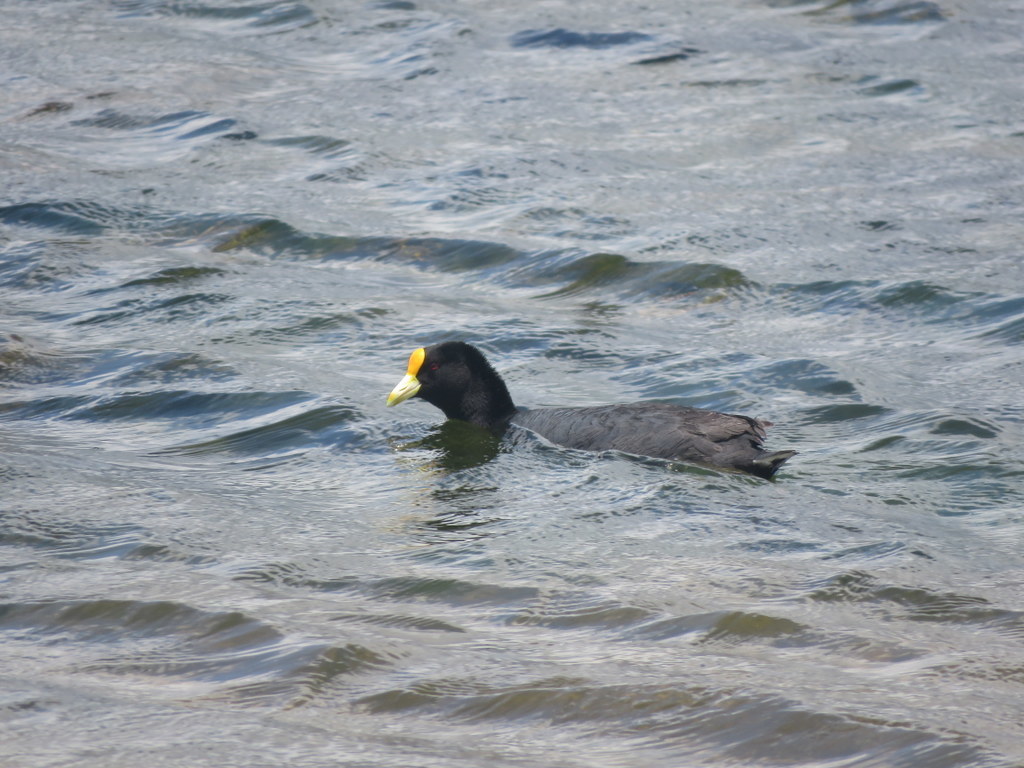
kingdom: Animalia
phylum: Chordata
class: Aves
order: Gruiformes
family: Rallidae
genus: Fulica
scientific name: Fulica leucoptera
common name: White-winged coot
